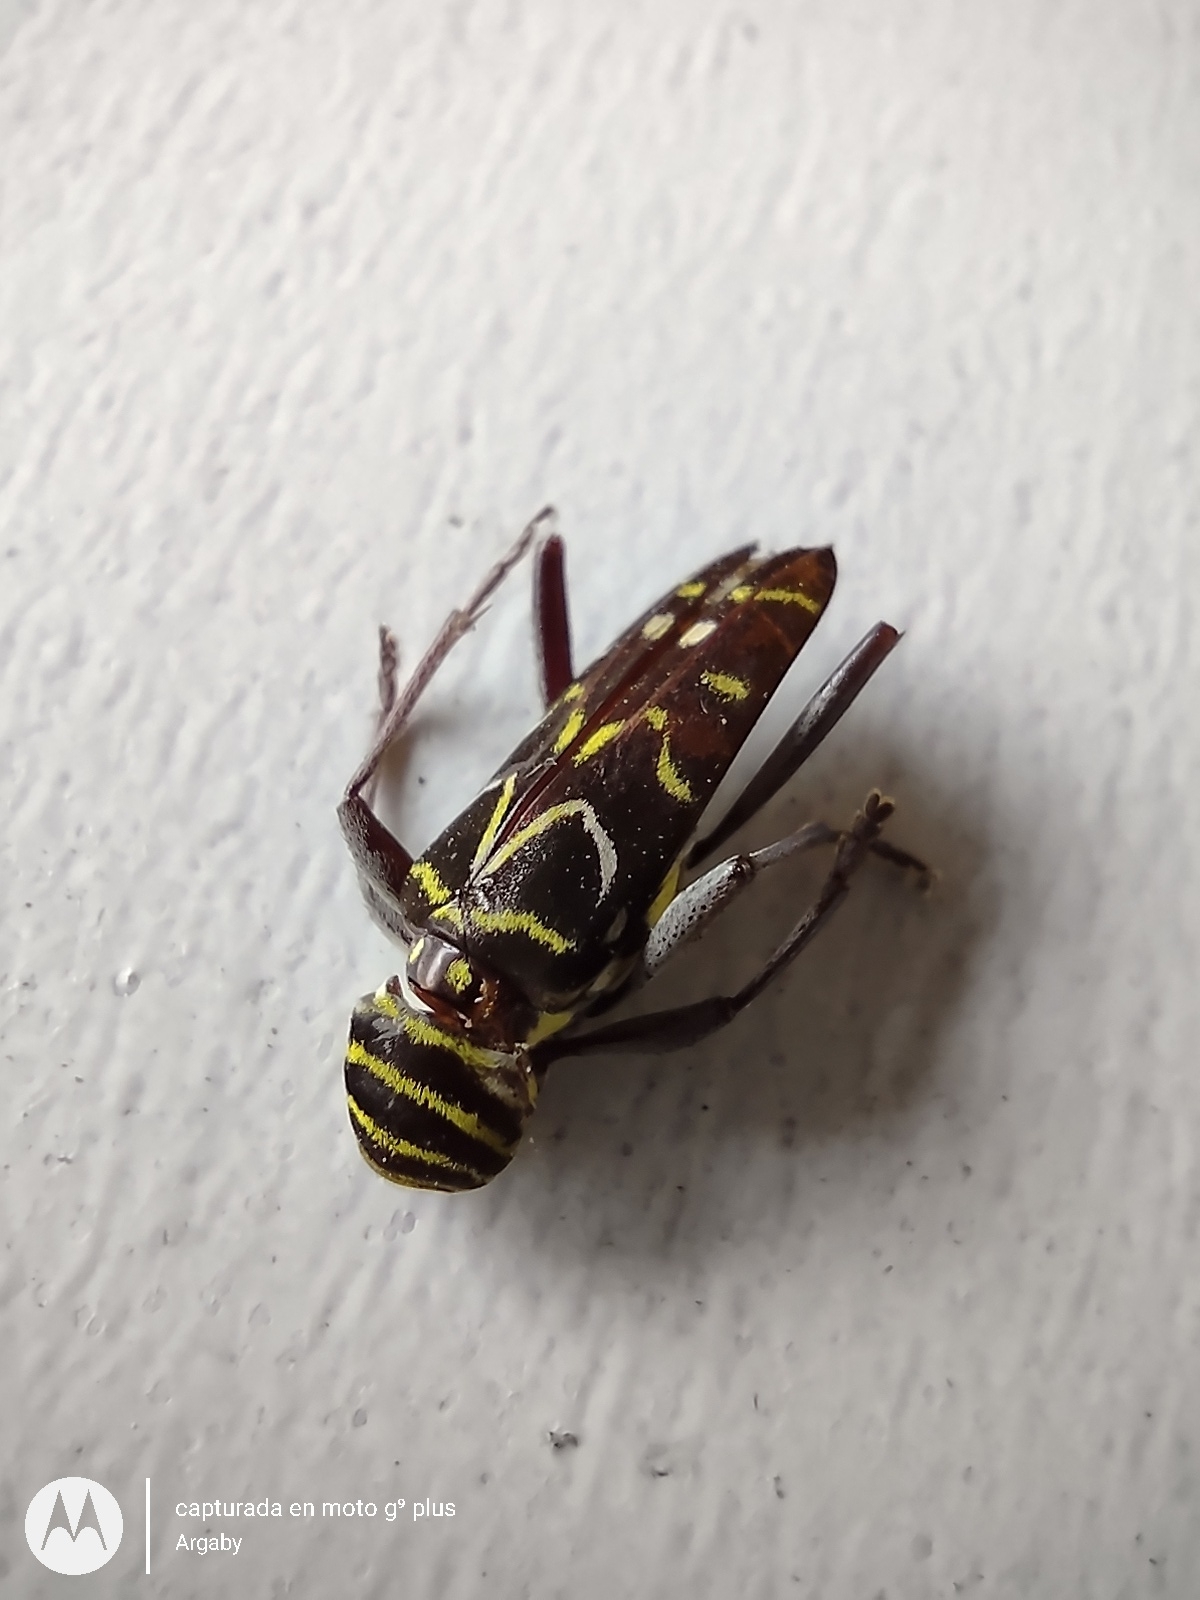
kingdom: Animalia
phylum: Arthropoda
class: Insecta
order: Coleoptera
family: Cerambycidae
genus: Megacyllene
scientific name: Megacyllene acuta
